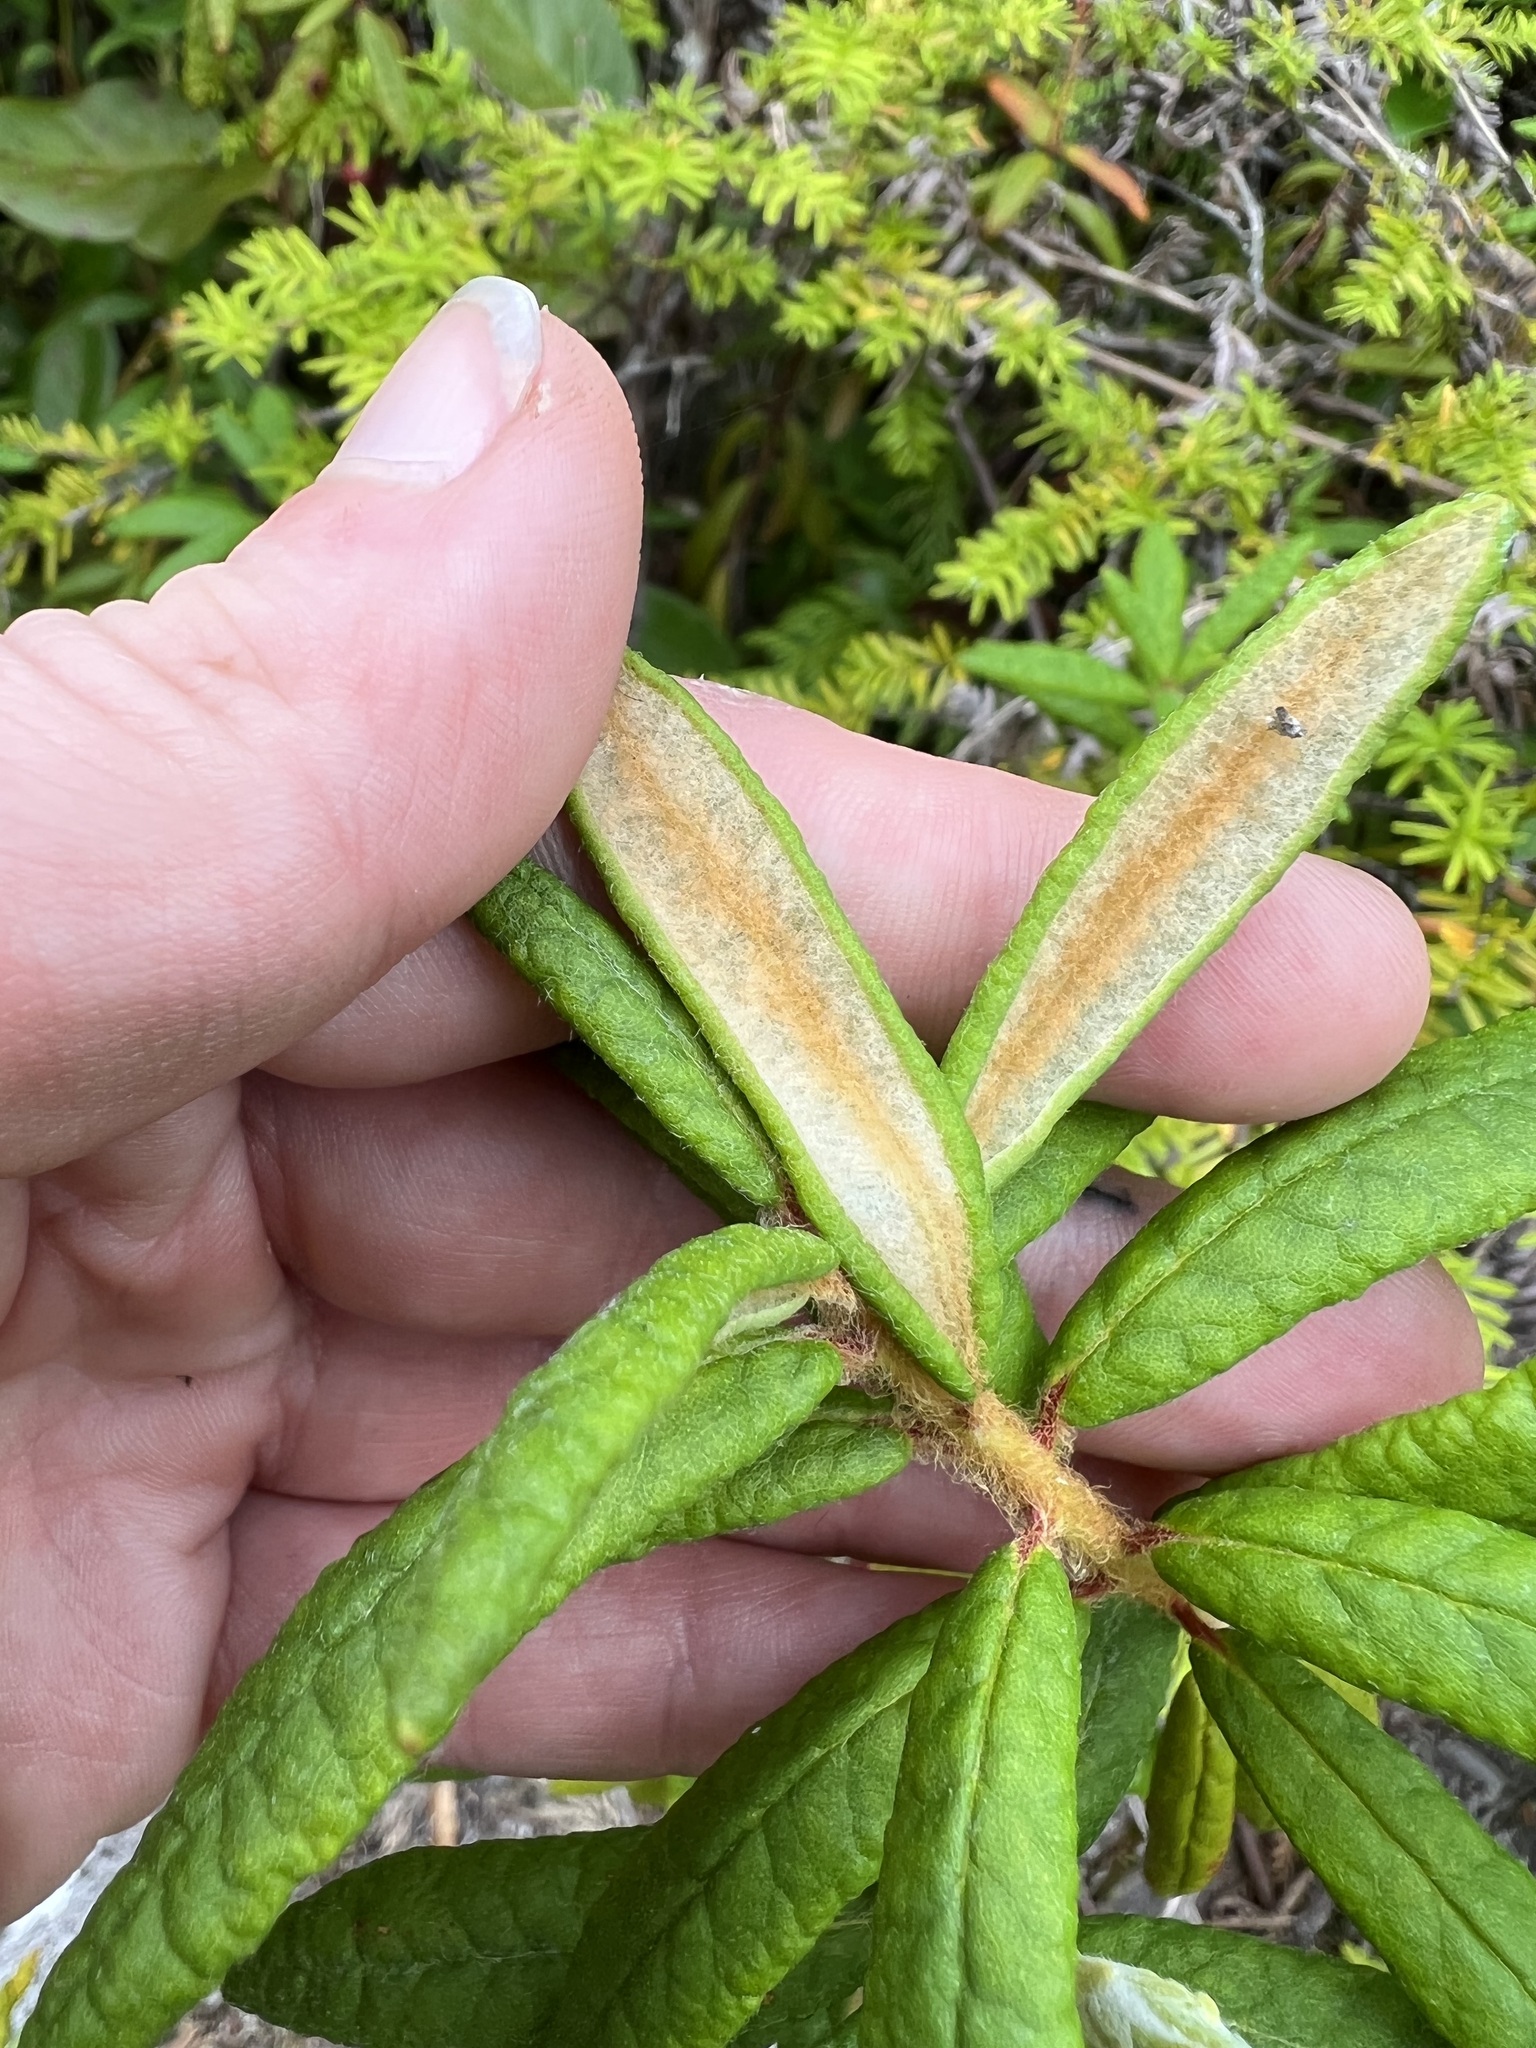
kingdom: Plantae
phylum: Tracheophyta
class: Magnoliopsida
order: Ericales
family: Ericaceae
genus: Rhododendron
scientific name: Rhododendron groenlandicum
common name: Bog labrador tea
